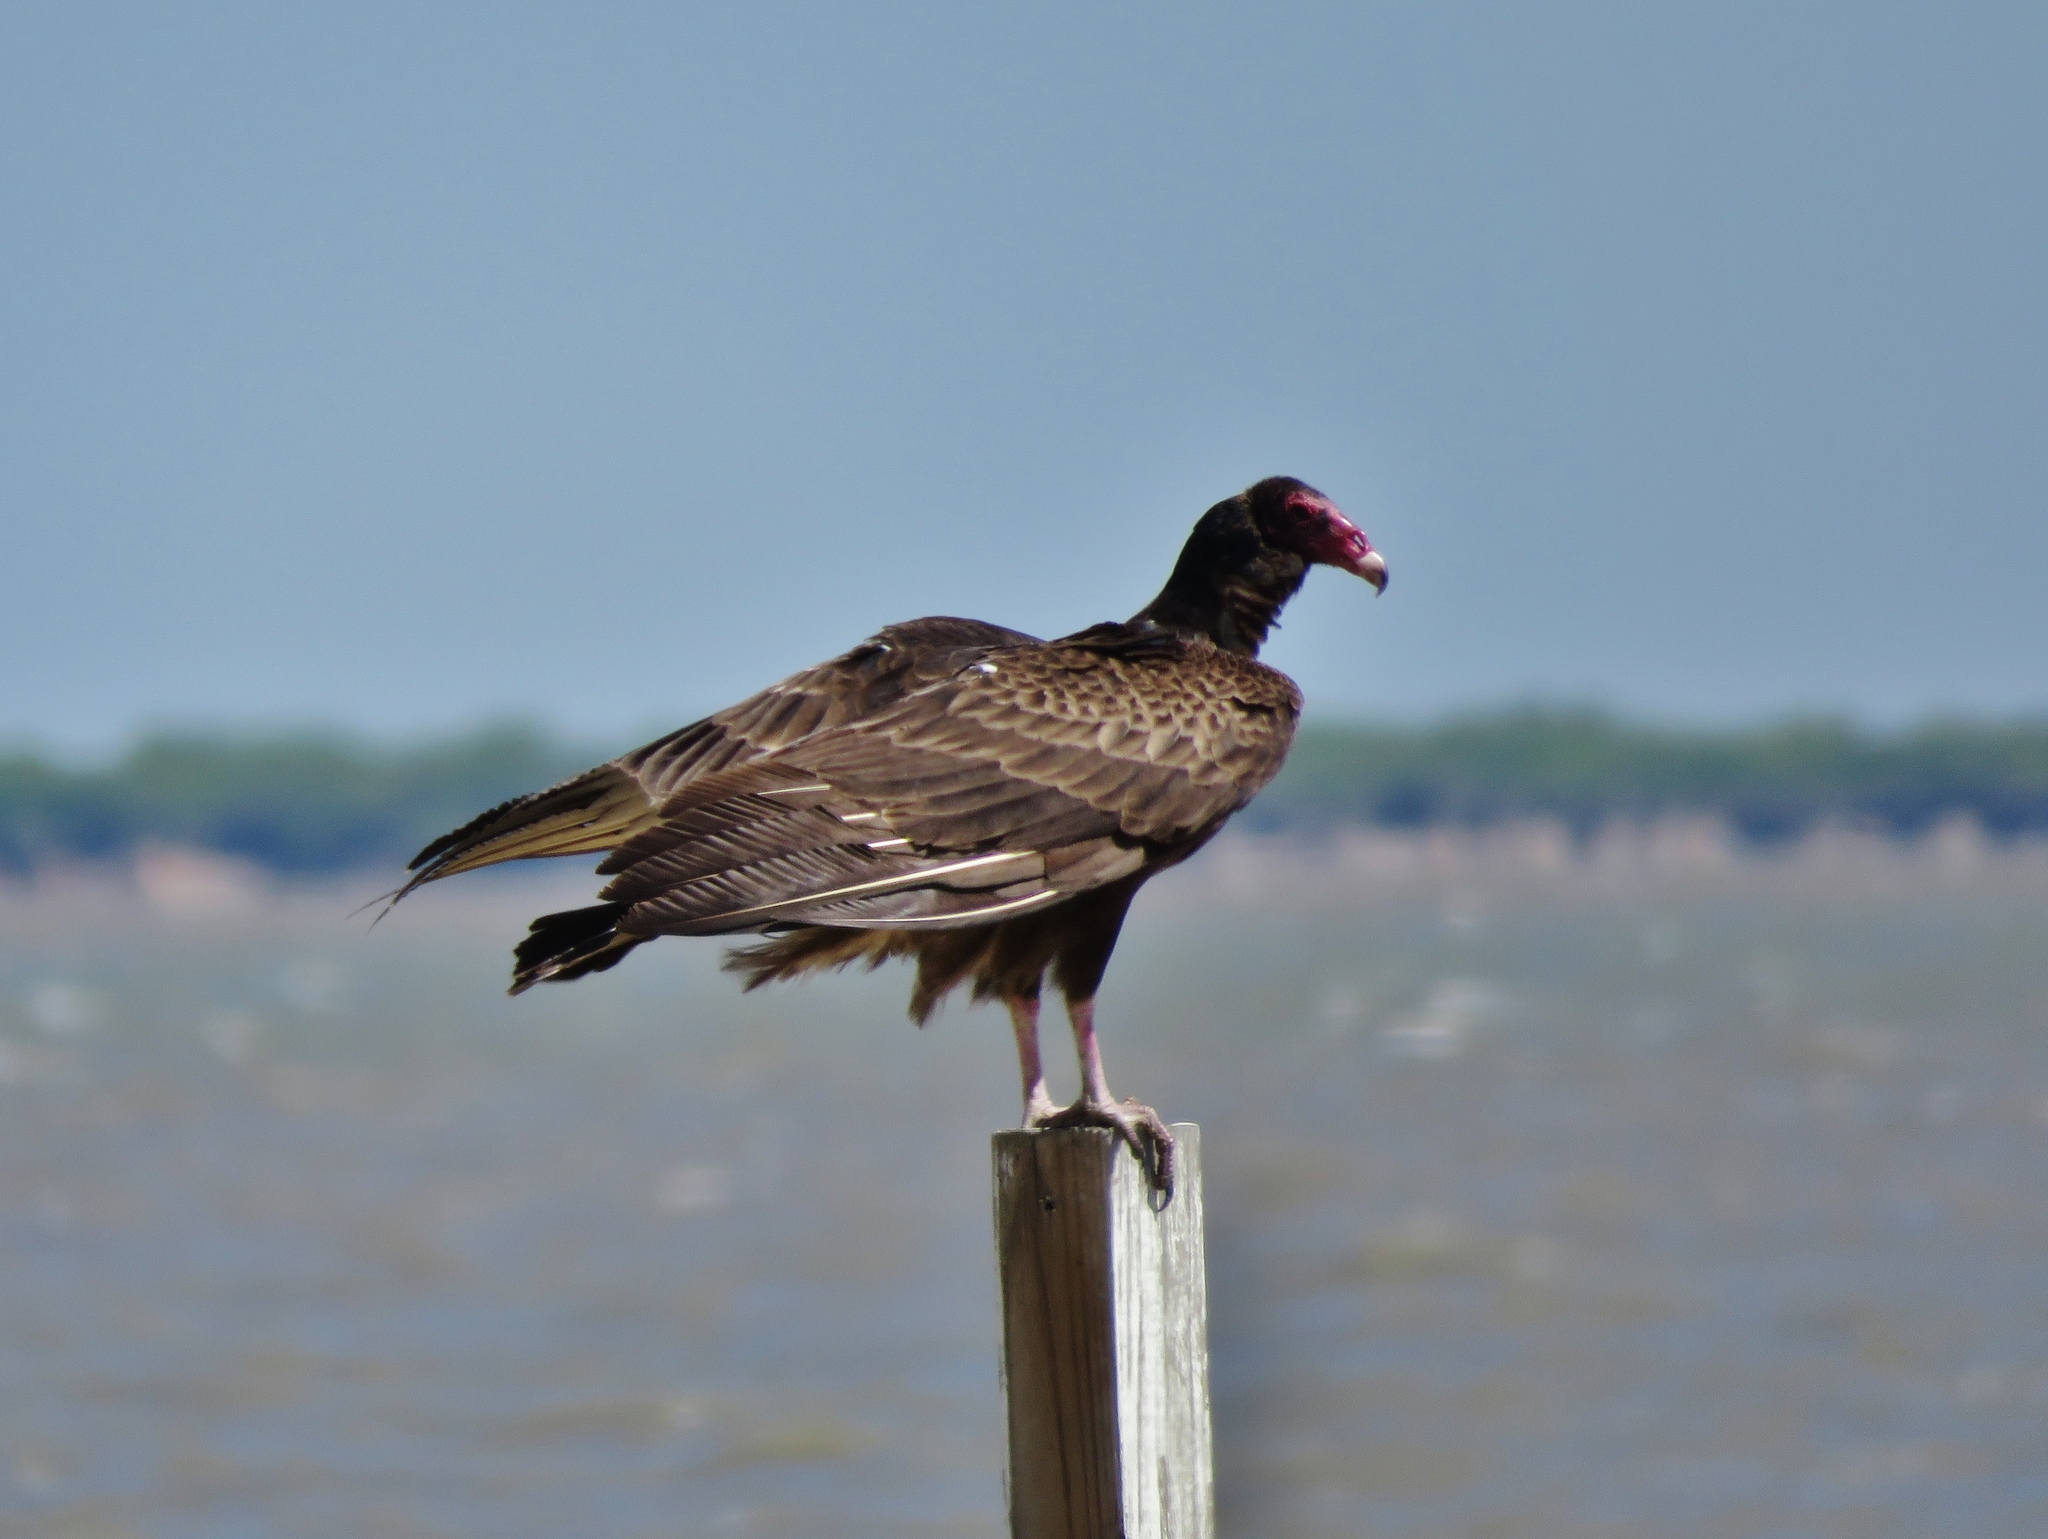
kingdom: Animalia
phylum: Chordata
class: Aves
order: Accipitriformes
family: Cathartidae
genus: Cathartes
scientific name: Cathartes aura
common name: Turkey vulture
